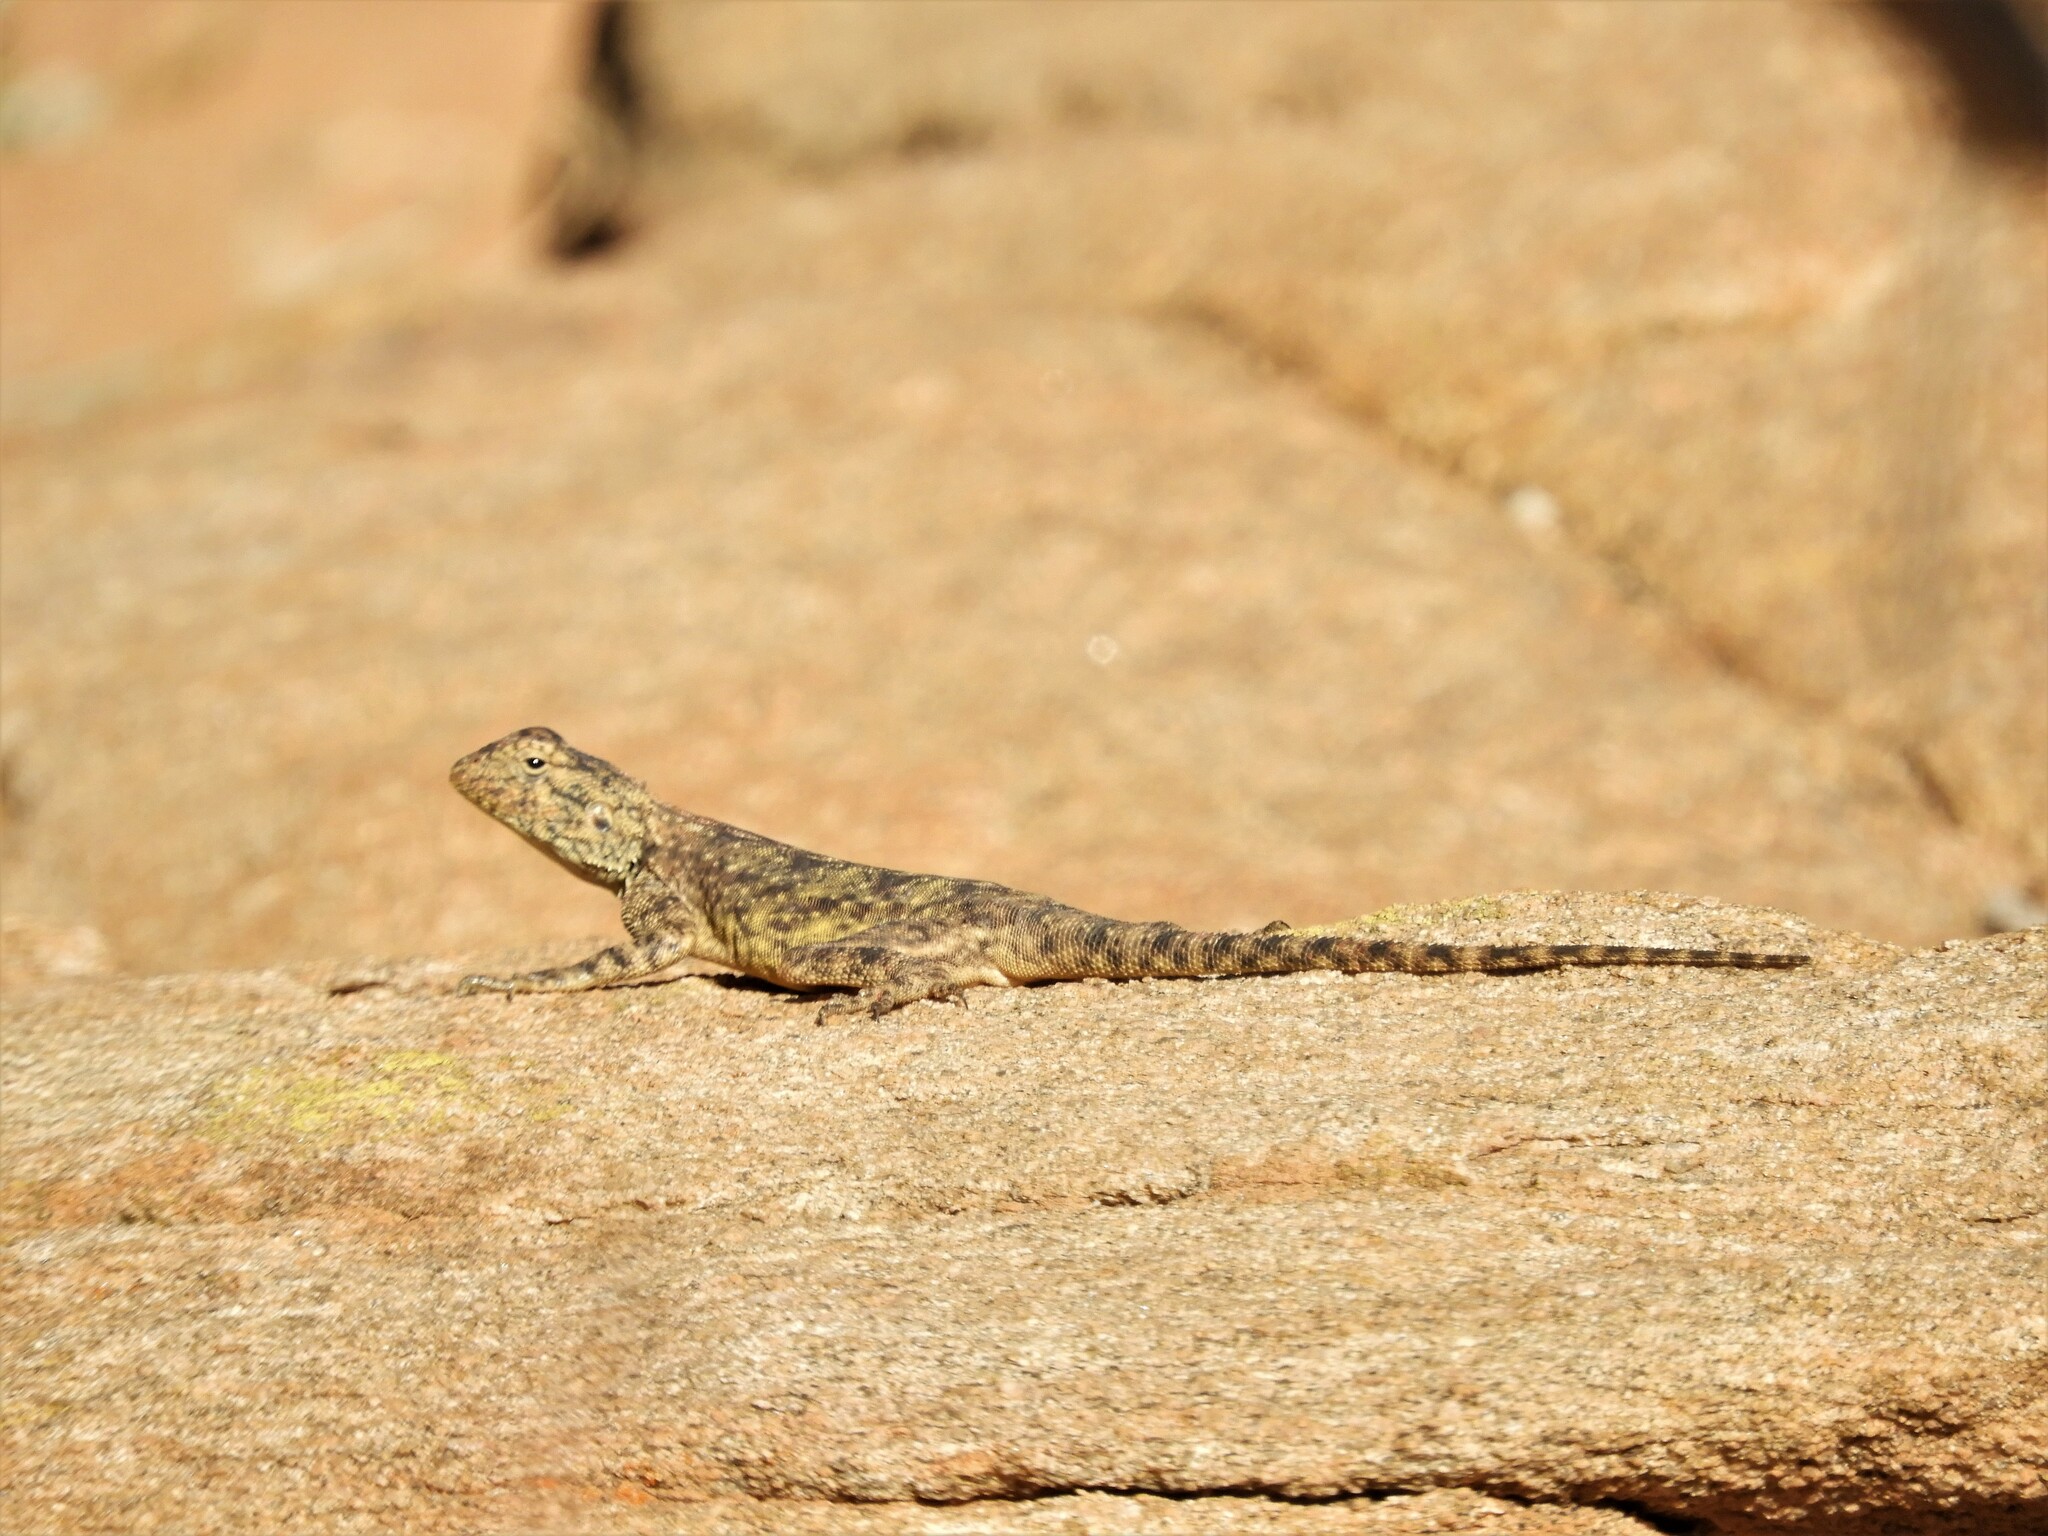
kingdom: Animalia
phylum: Chordata
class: Squamata
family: Agamidae
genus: Agama
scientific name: Agama atra
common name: Southern african rock agama
